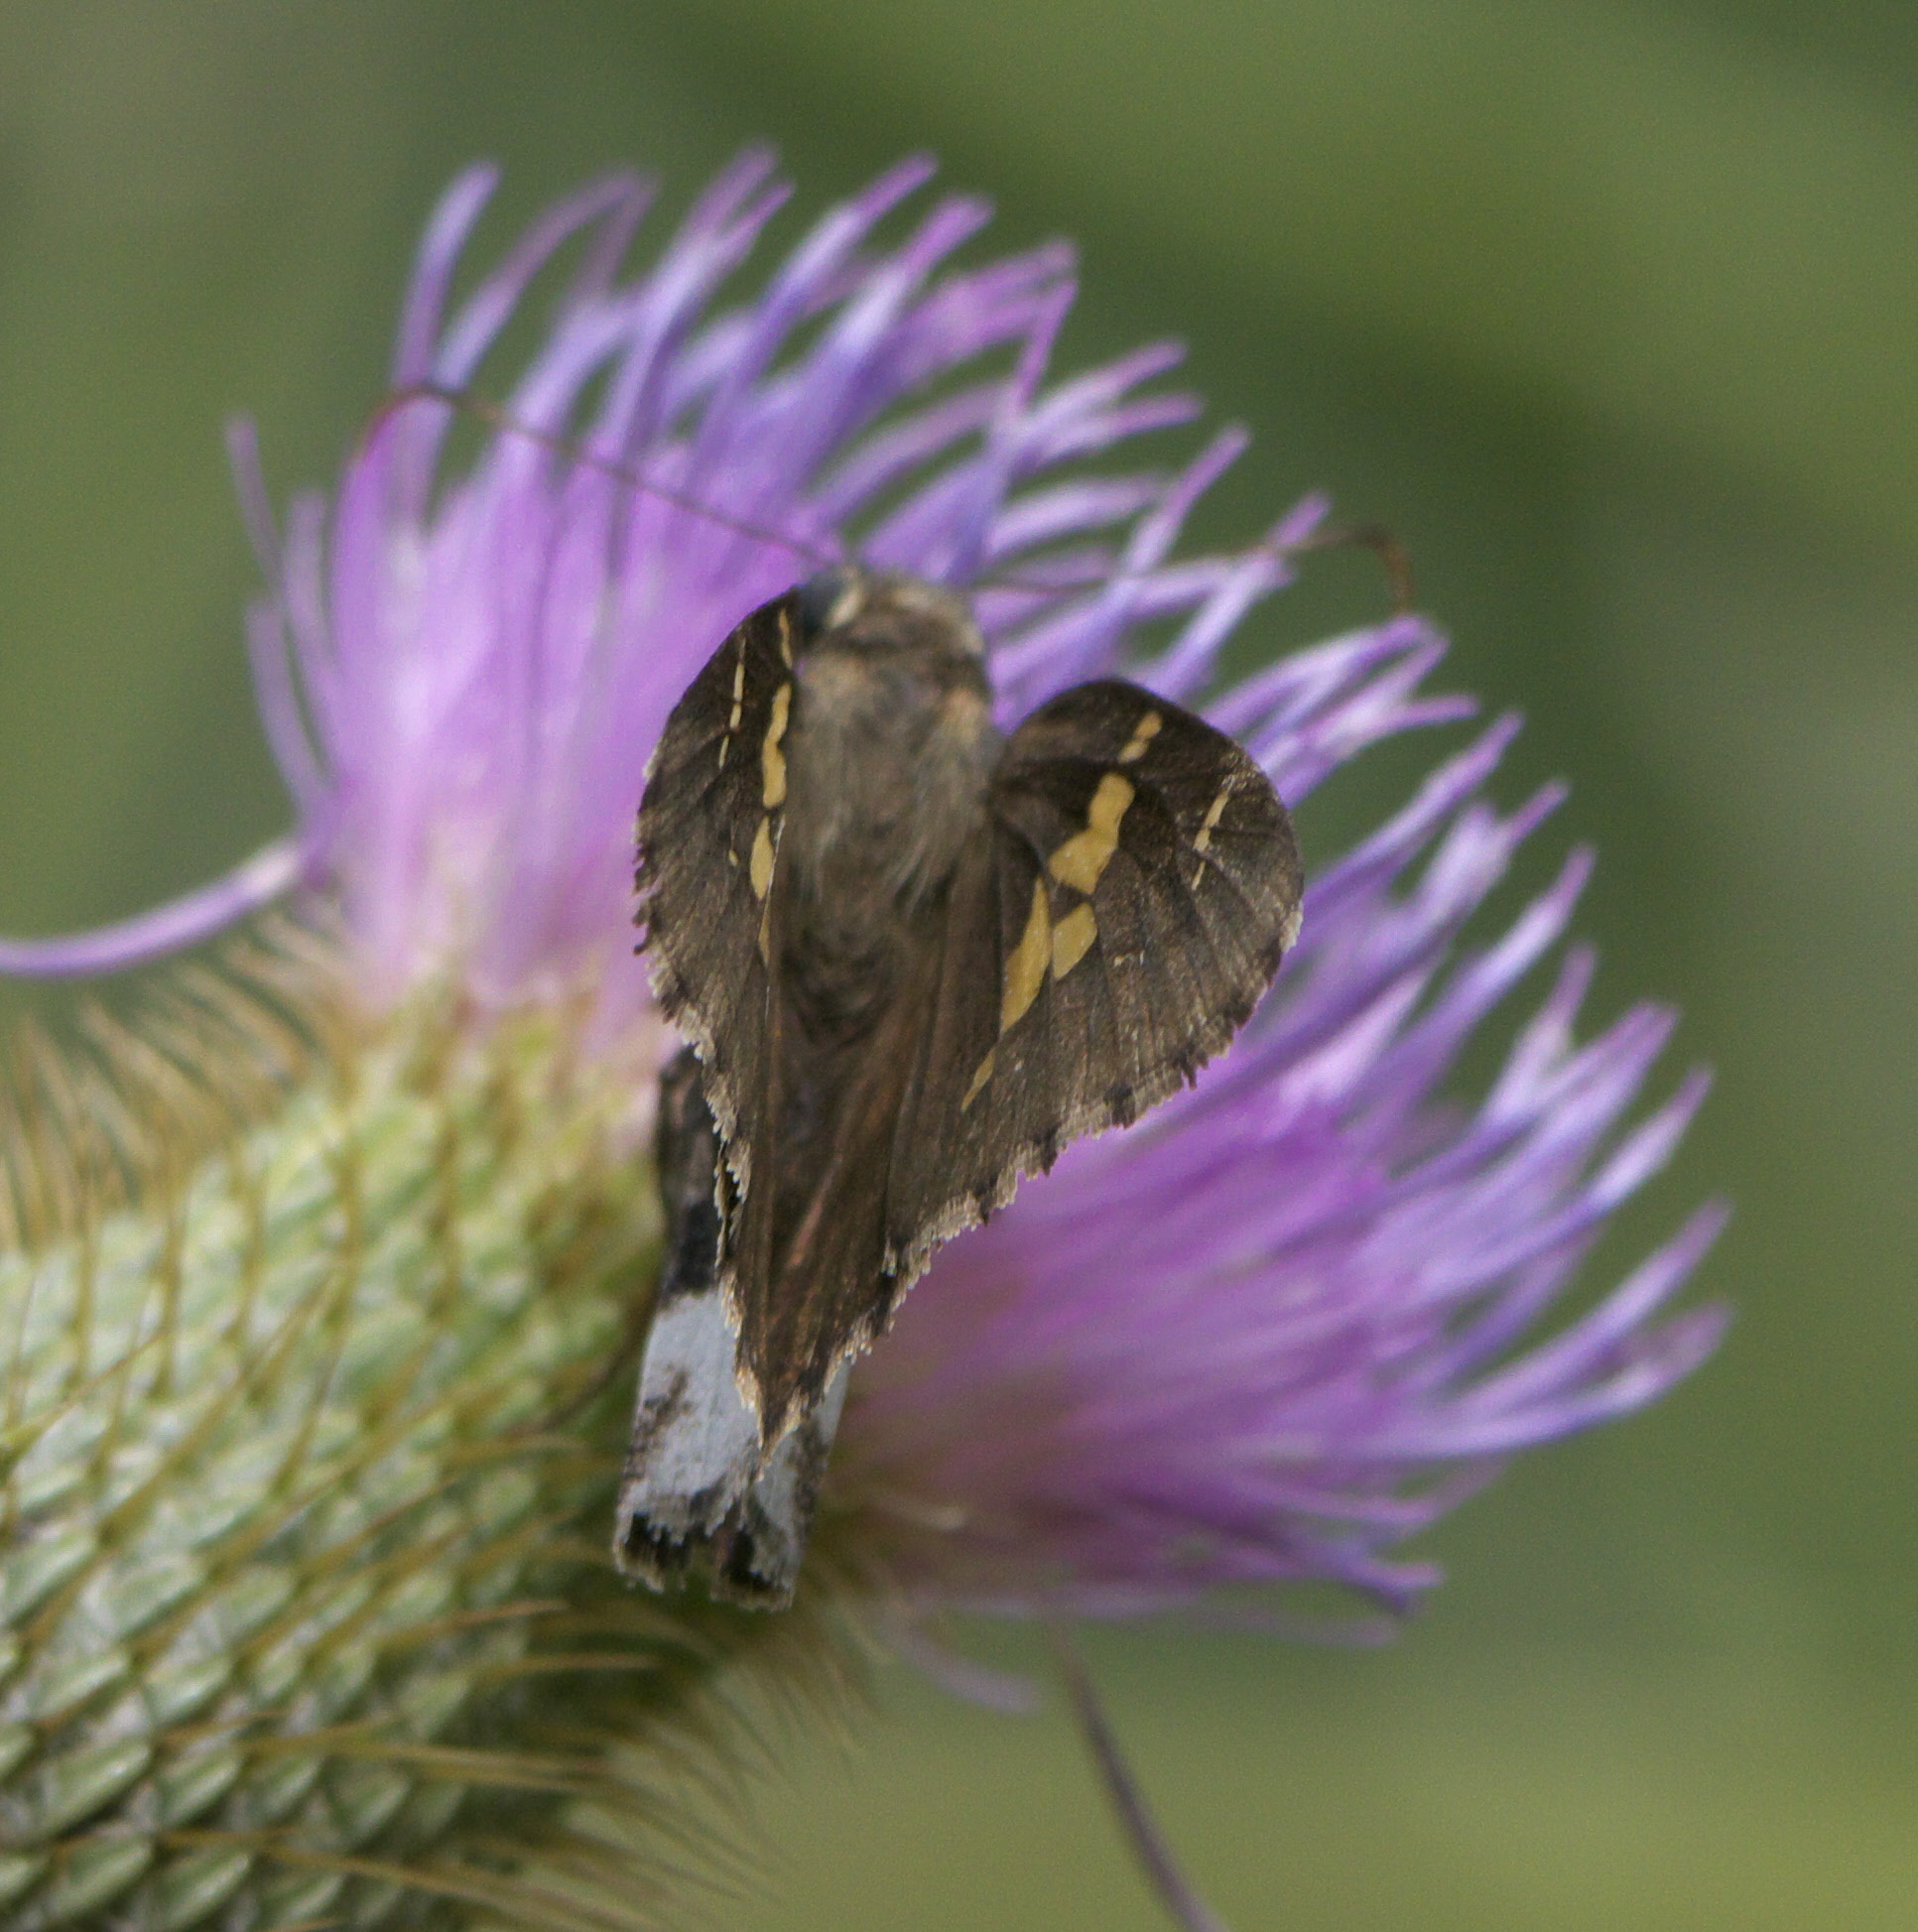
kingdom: Animalia
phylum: Arthropoda
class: Insecta
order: Lepidoptera
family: Hesperiidae
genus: Thorybes
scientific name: Thorybes lyciades
